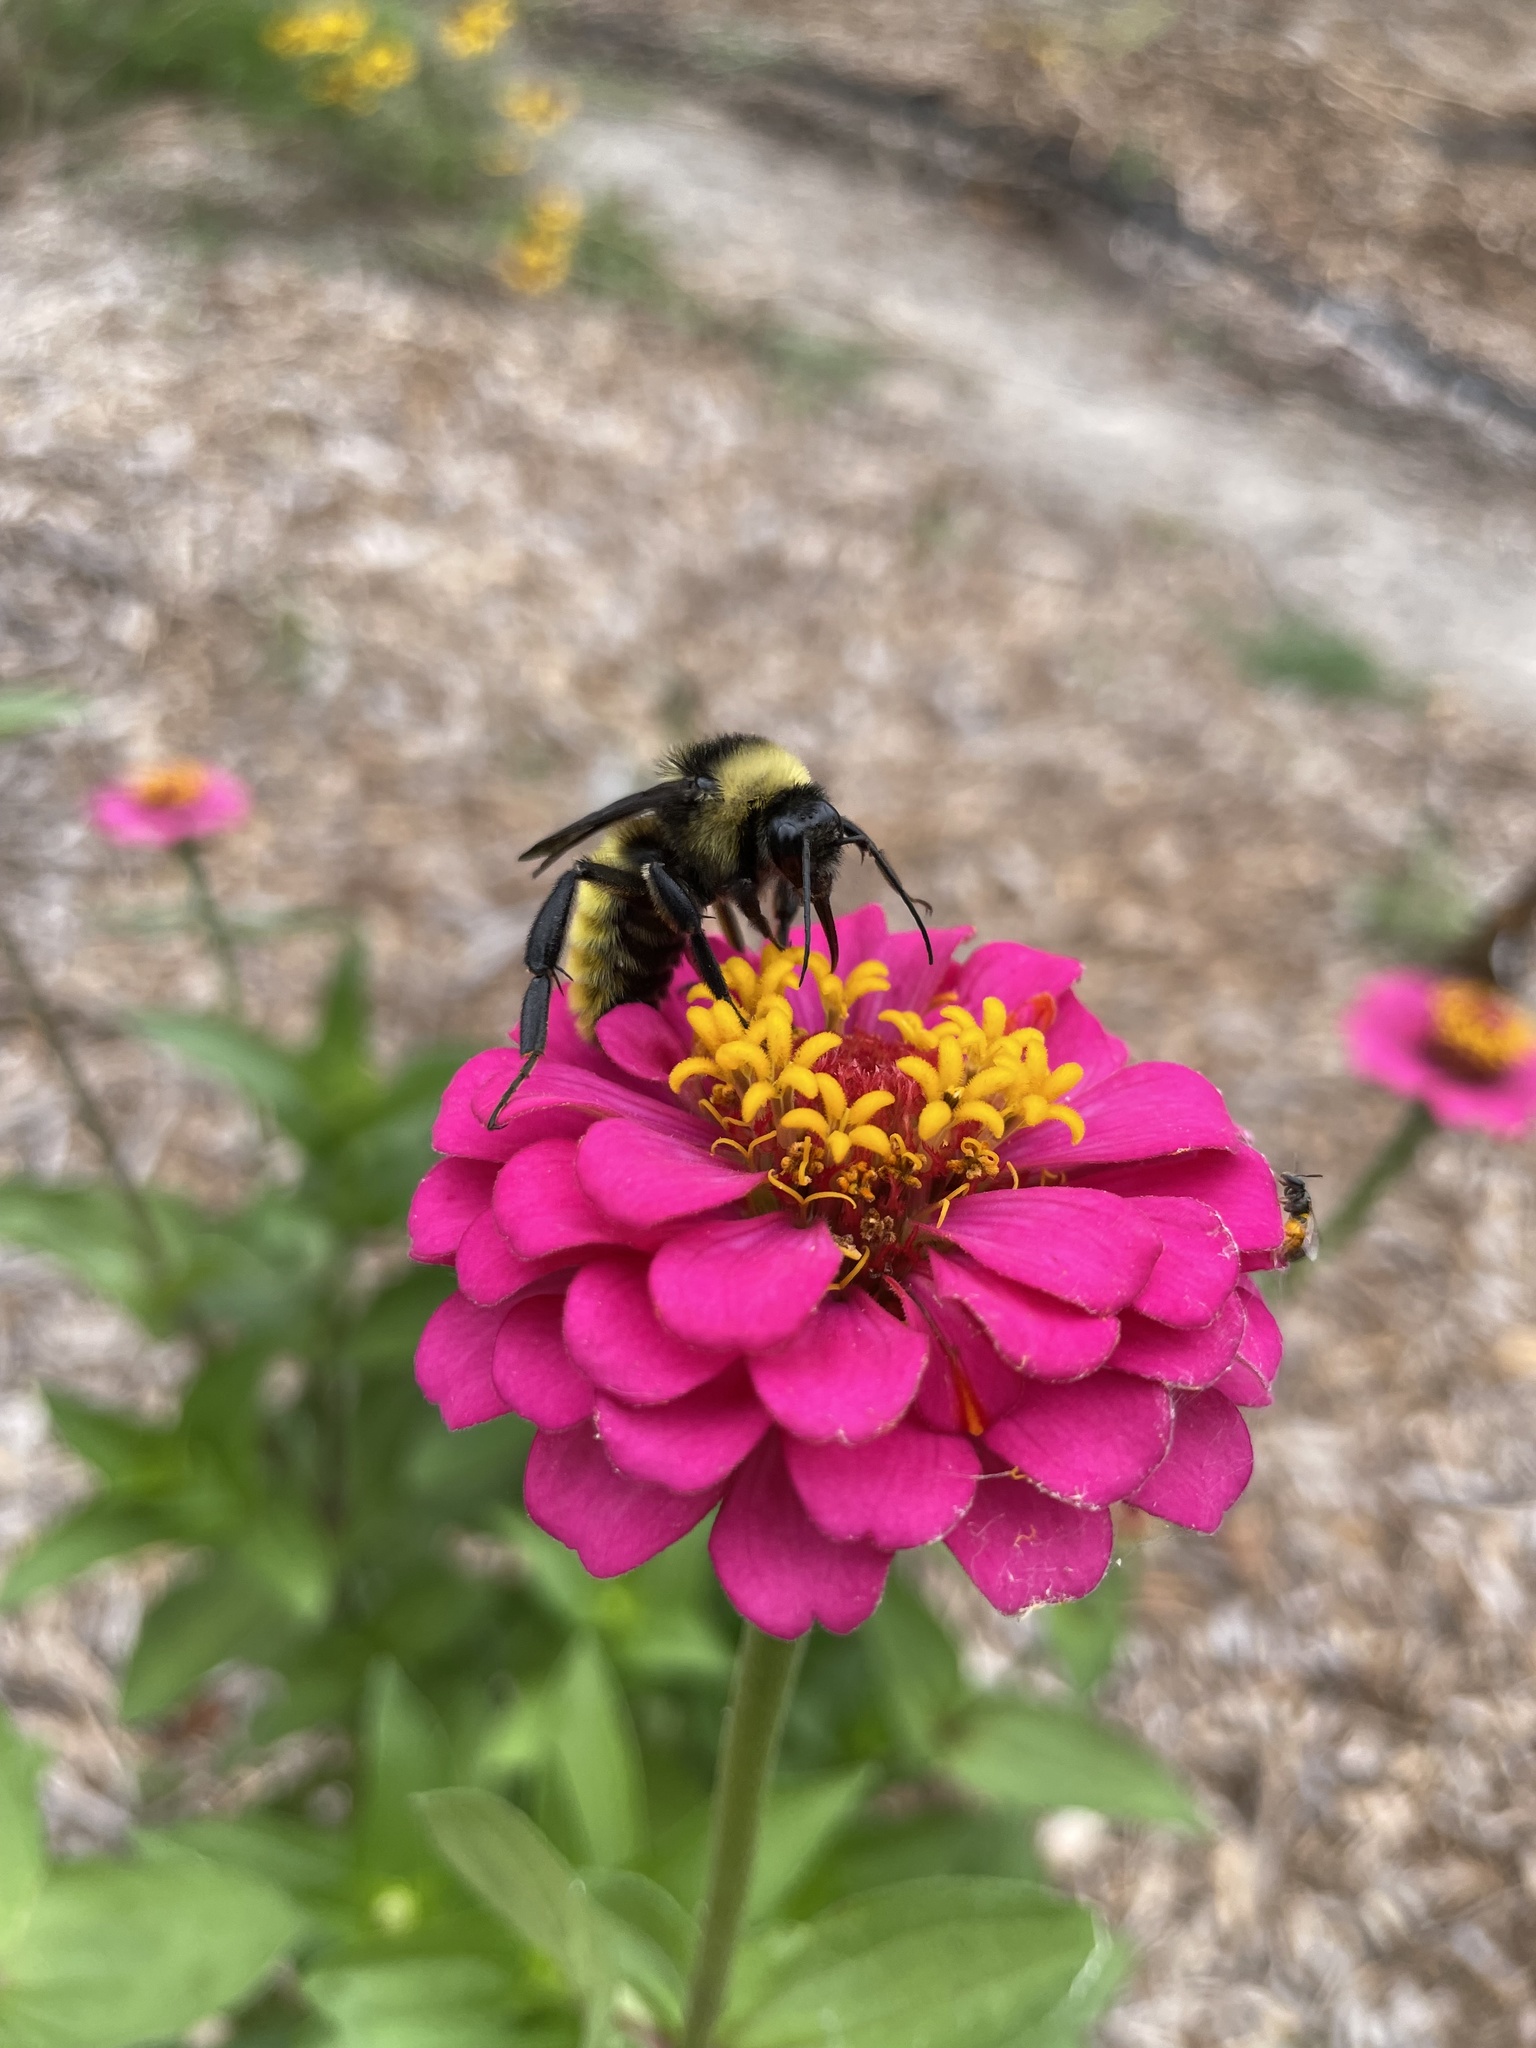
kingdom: Animalia
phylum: Arthropoda
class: Insecta
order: Hymenoptera
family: Apidae
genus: Bombus
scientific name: Bombus pensylvanicus
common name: Bumble bee
